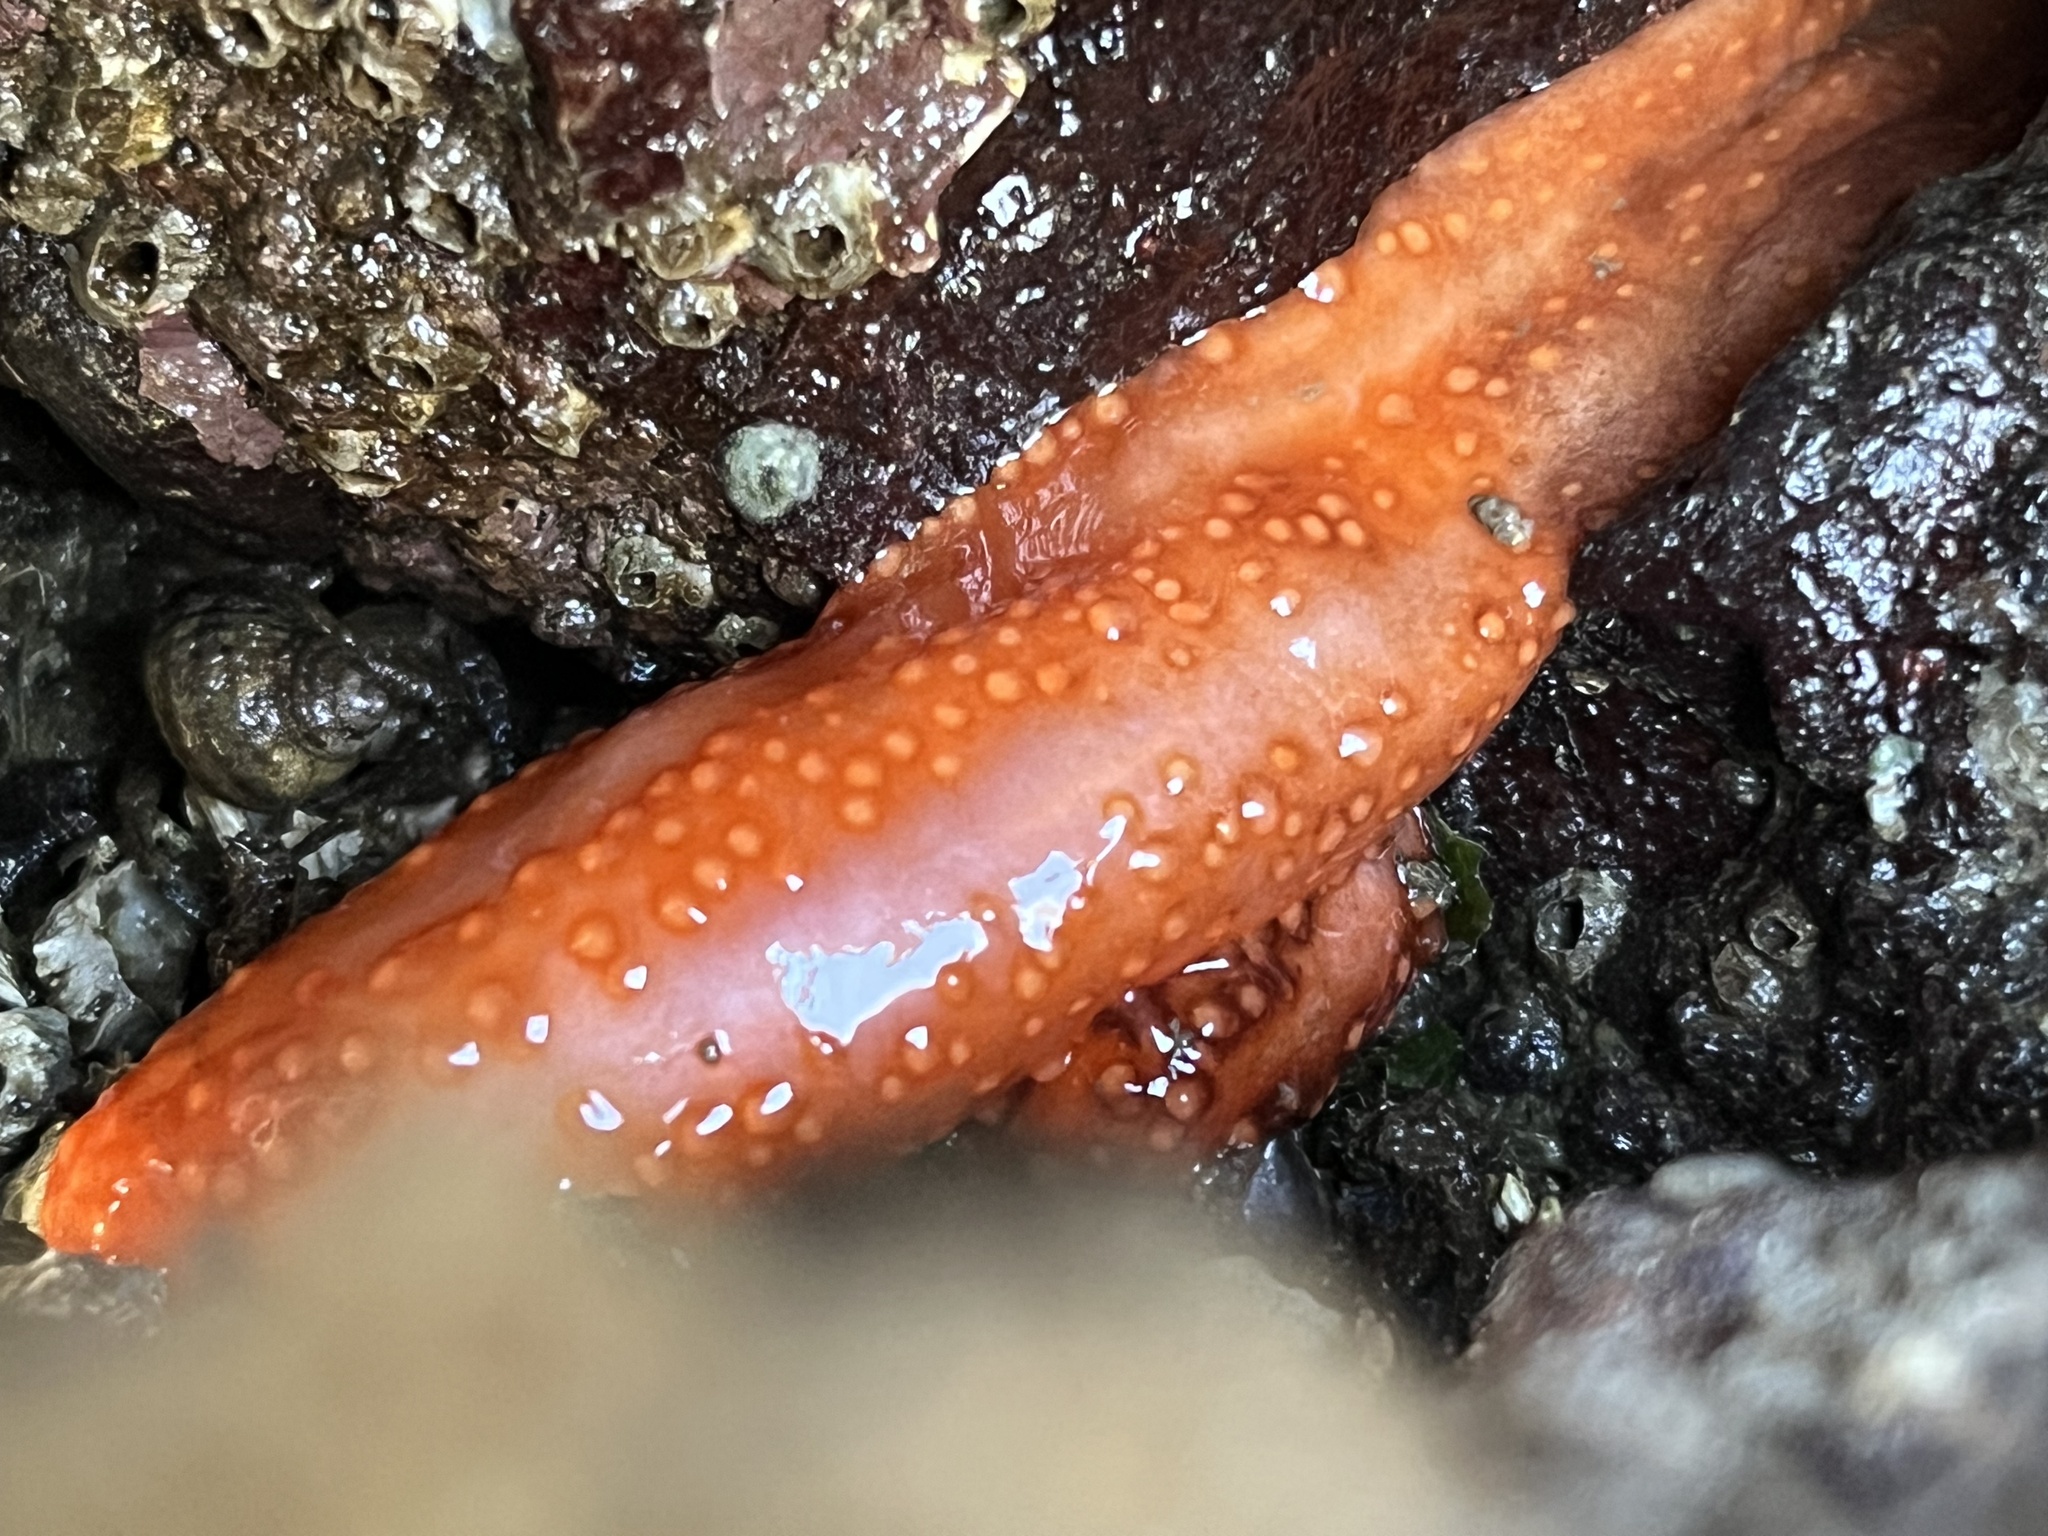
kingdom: Animalia
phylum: Echinodermata
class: Holothuroidea
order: Dendrochirotida
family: Cucumariidae
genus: Cucumaria
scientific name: Cucumaria miniata
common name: Orange sea cucumber
